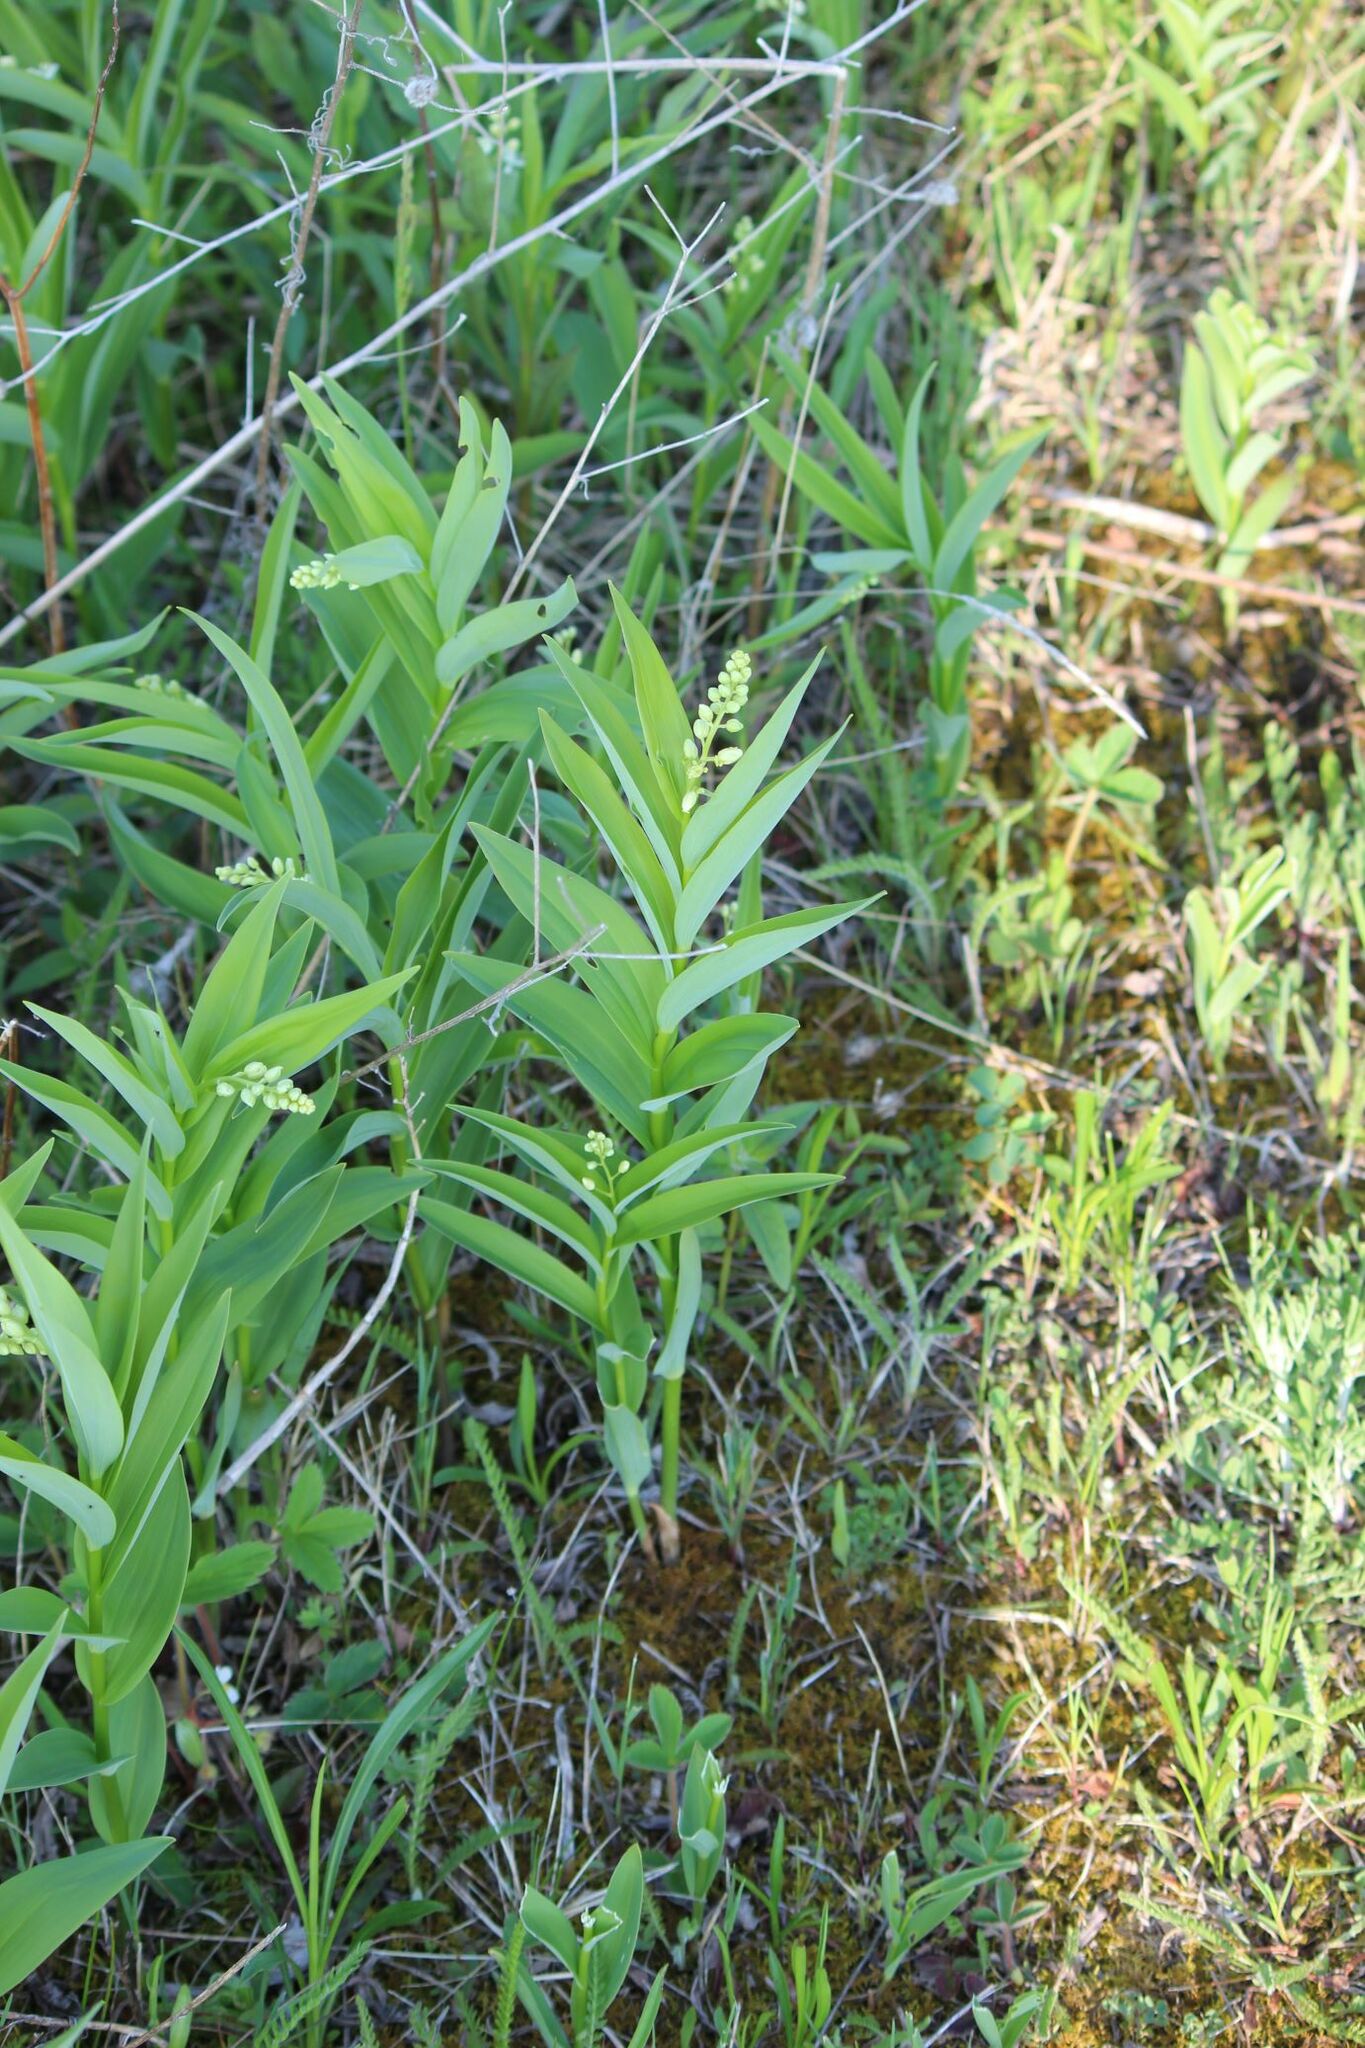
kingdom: Plantae
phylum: Tracheophyta
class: Liliopsida
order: Asparagales
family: Asparagaceae
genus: Maianthemum
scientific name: Maianthemum stellatum
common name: Little false solomon's seal
